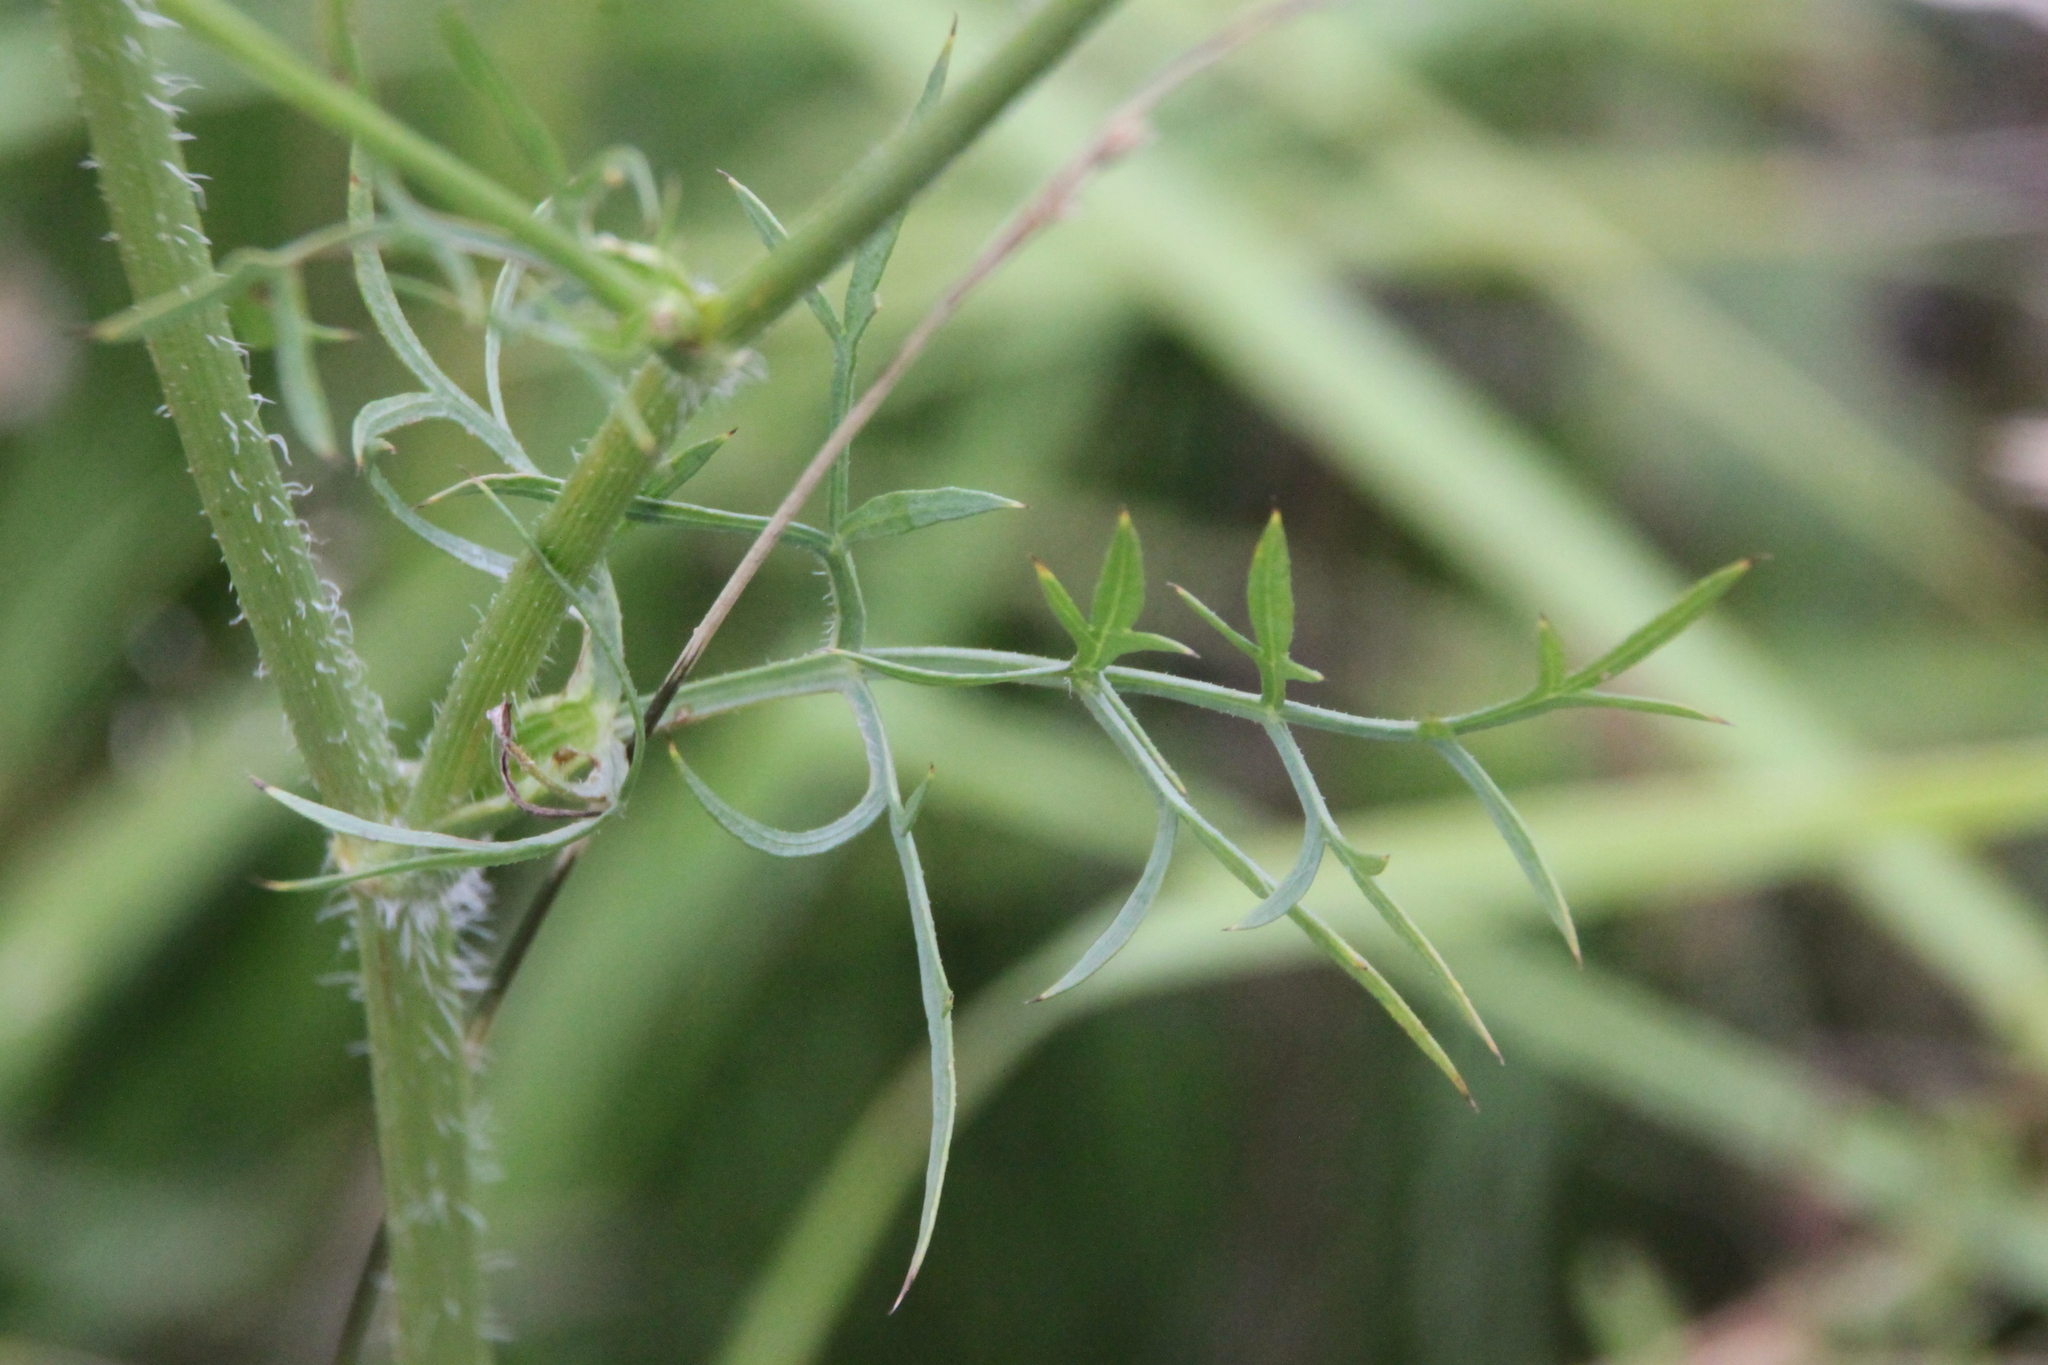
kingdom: Plantae
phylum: Tracheophyta
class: Magnoliopsida
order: Apiales
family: Apiaceae
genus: Silphiodaucus
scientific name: Silphiodaucus prutenicus
